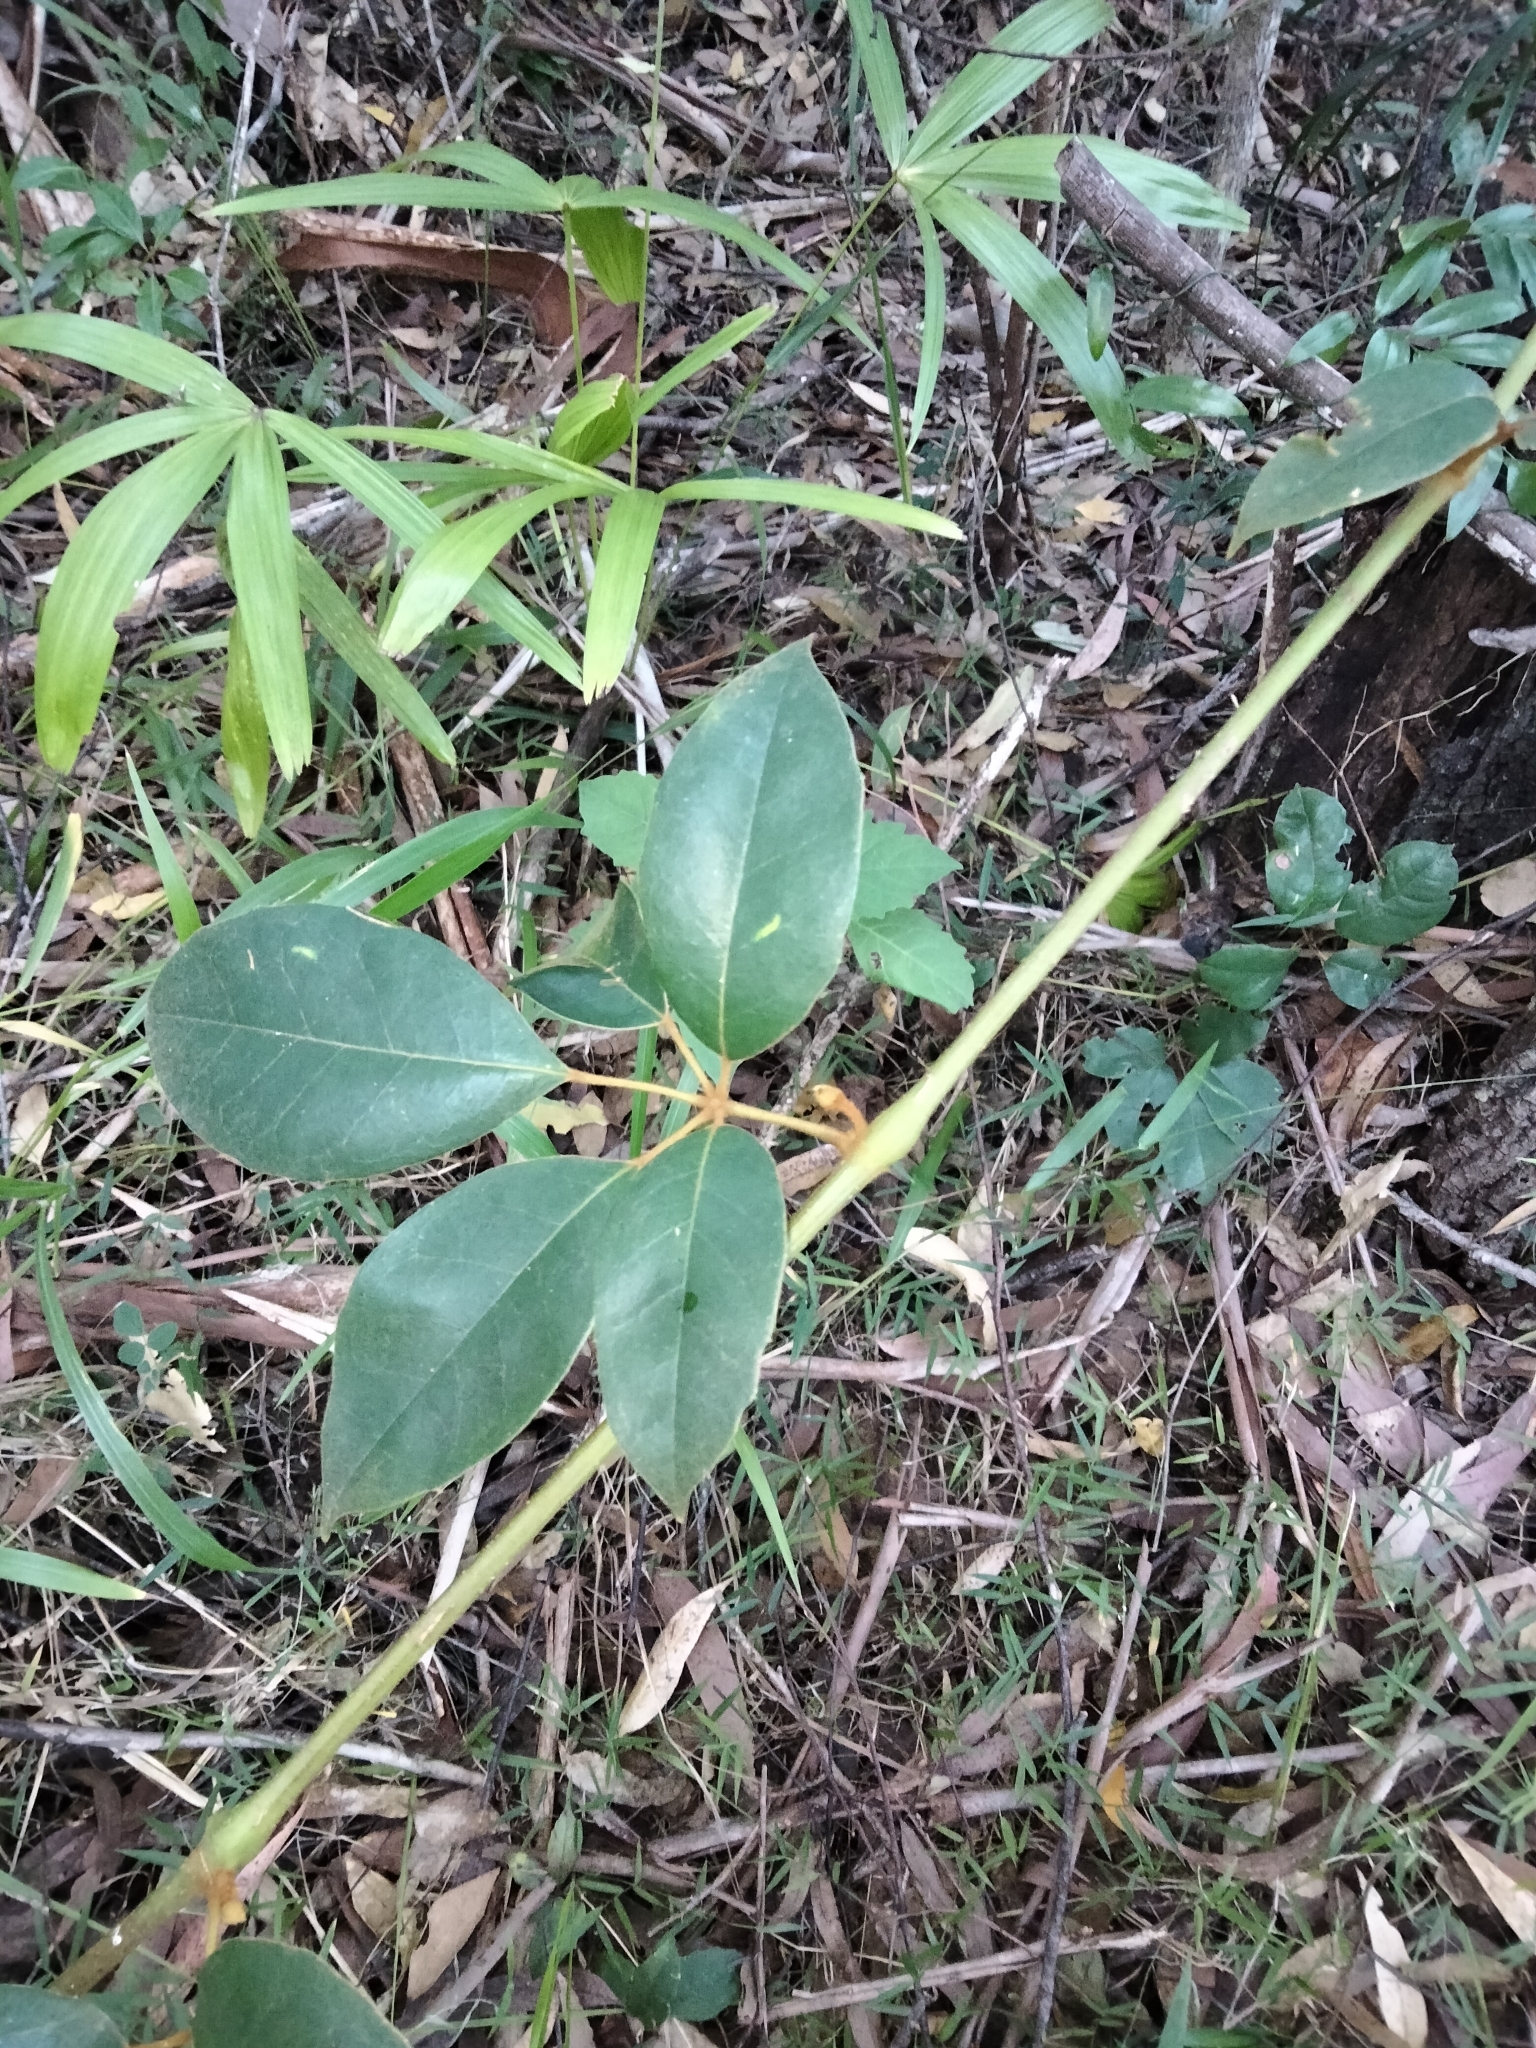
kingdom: Plantae
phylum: Tracheophyta
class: Magnoliopsida
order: Vitales
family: Vitaceae
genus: Nothocissus
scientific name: Nothocissus hypoglauca
